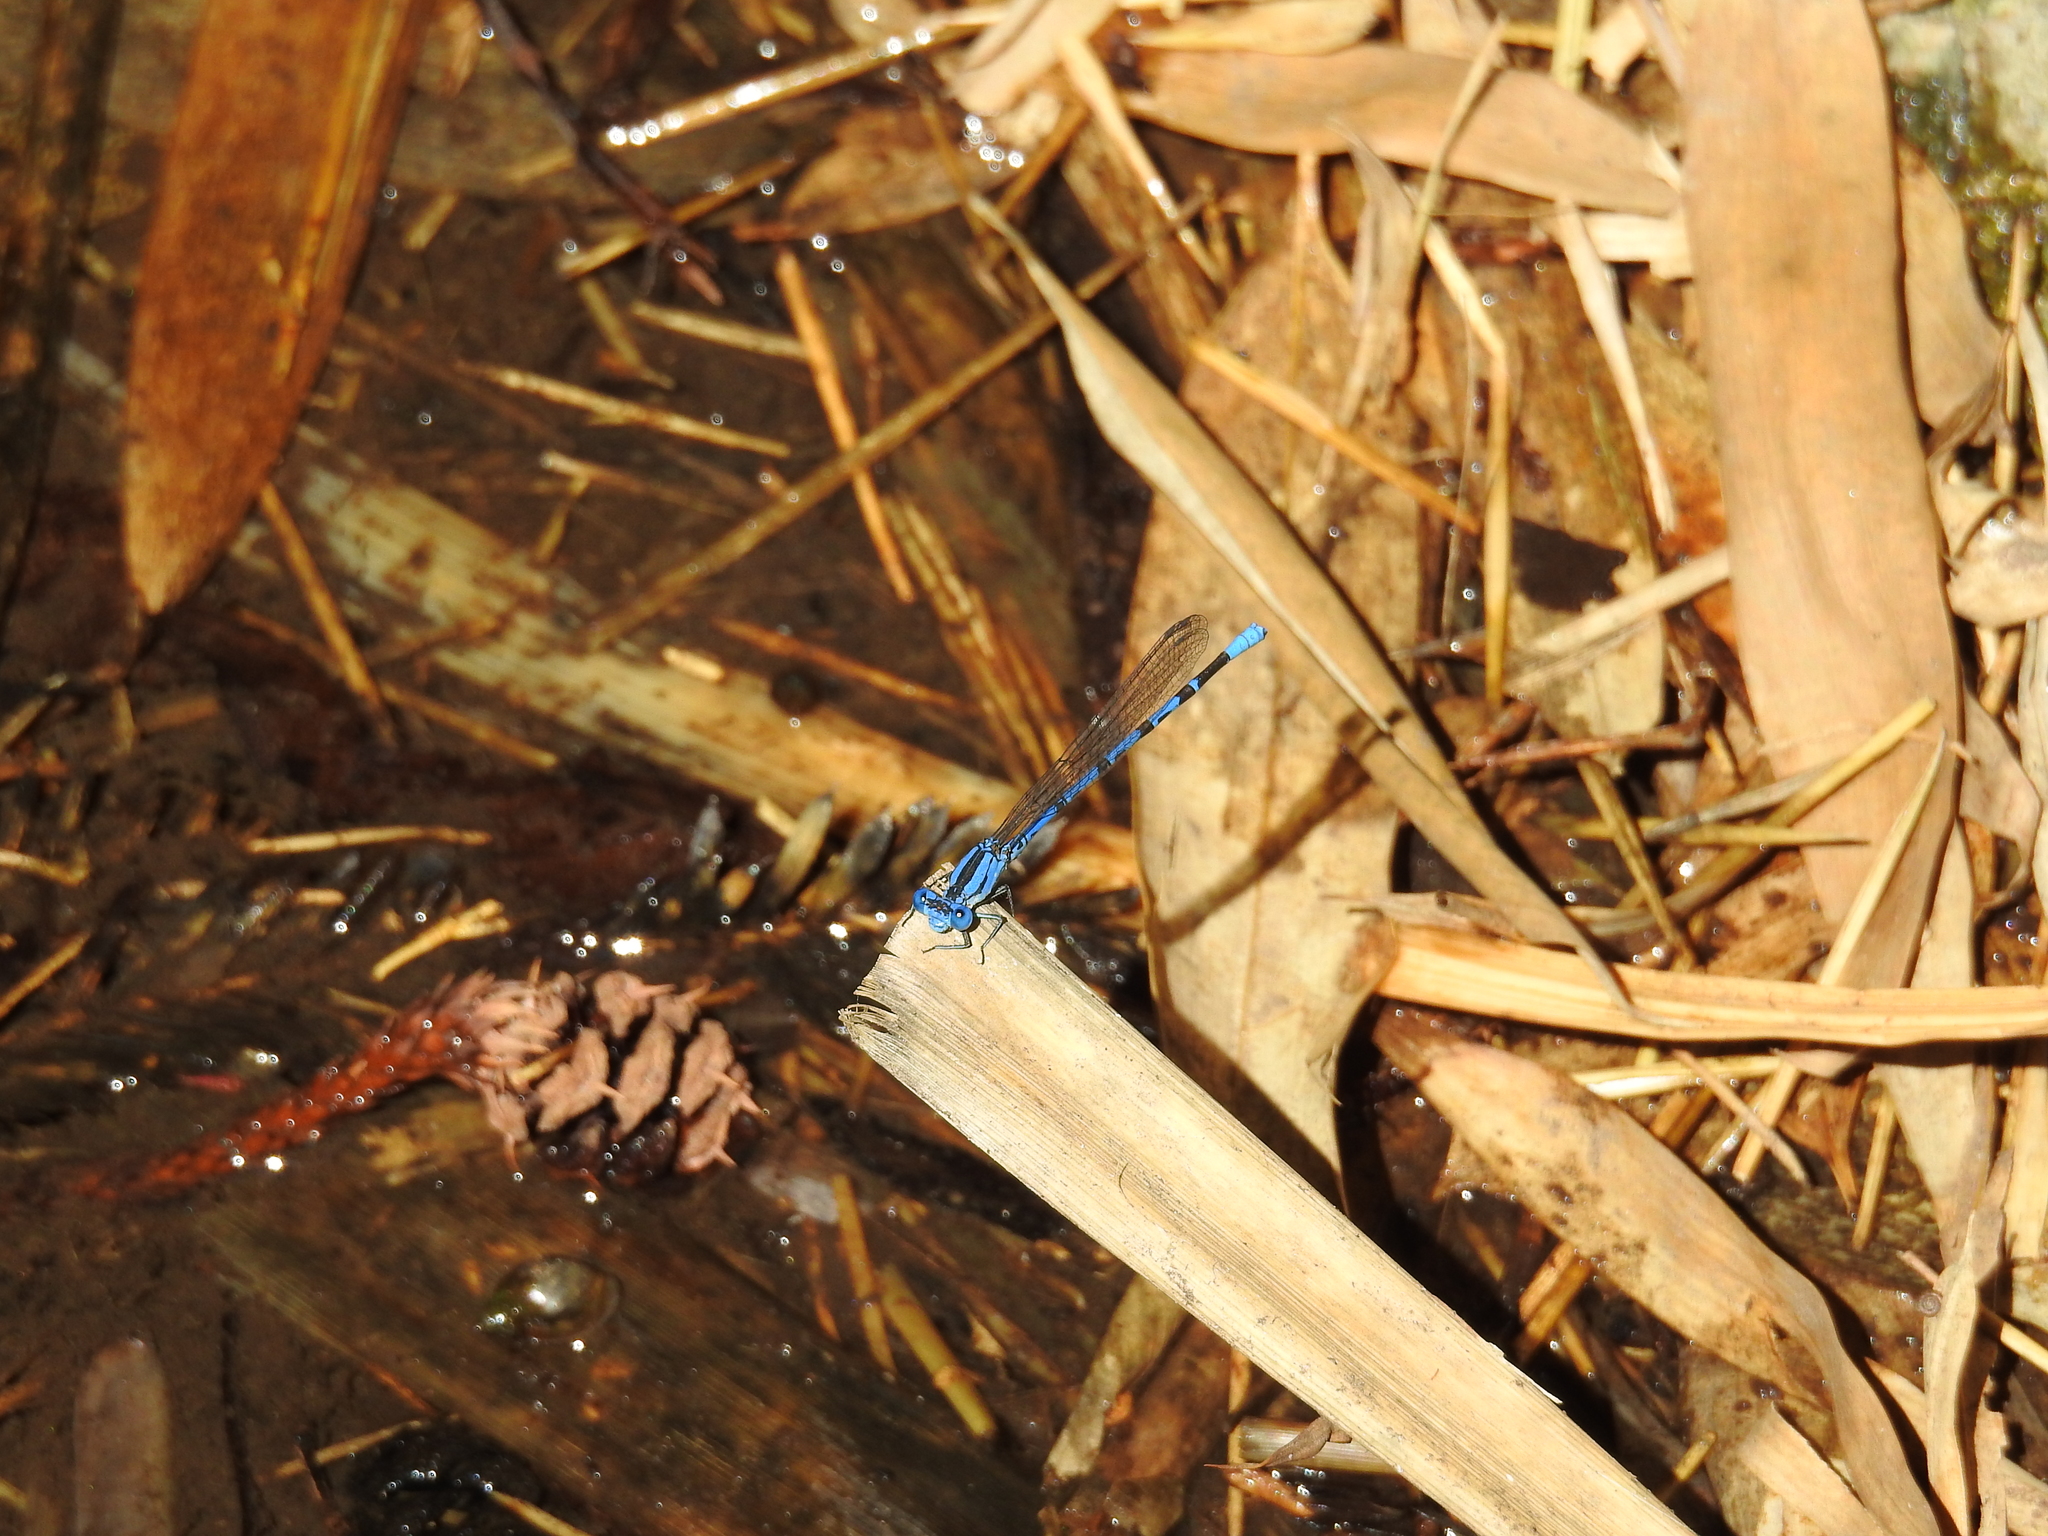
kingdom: Animalia
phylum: Arthropoda
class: Insecta
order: Odonata
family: Coenagrionidae
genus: Argia
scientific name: Argia vivida
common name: Vivid dancer
